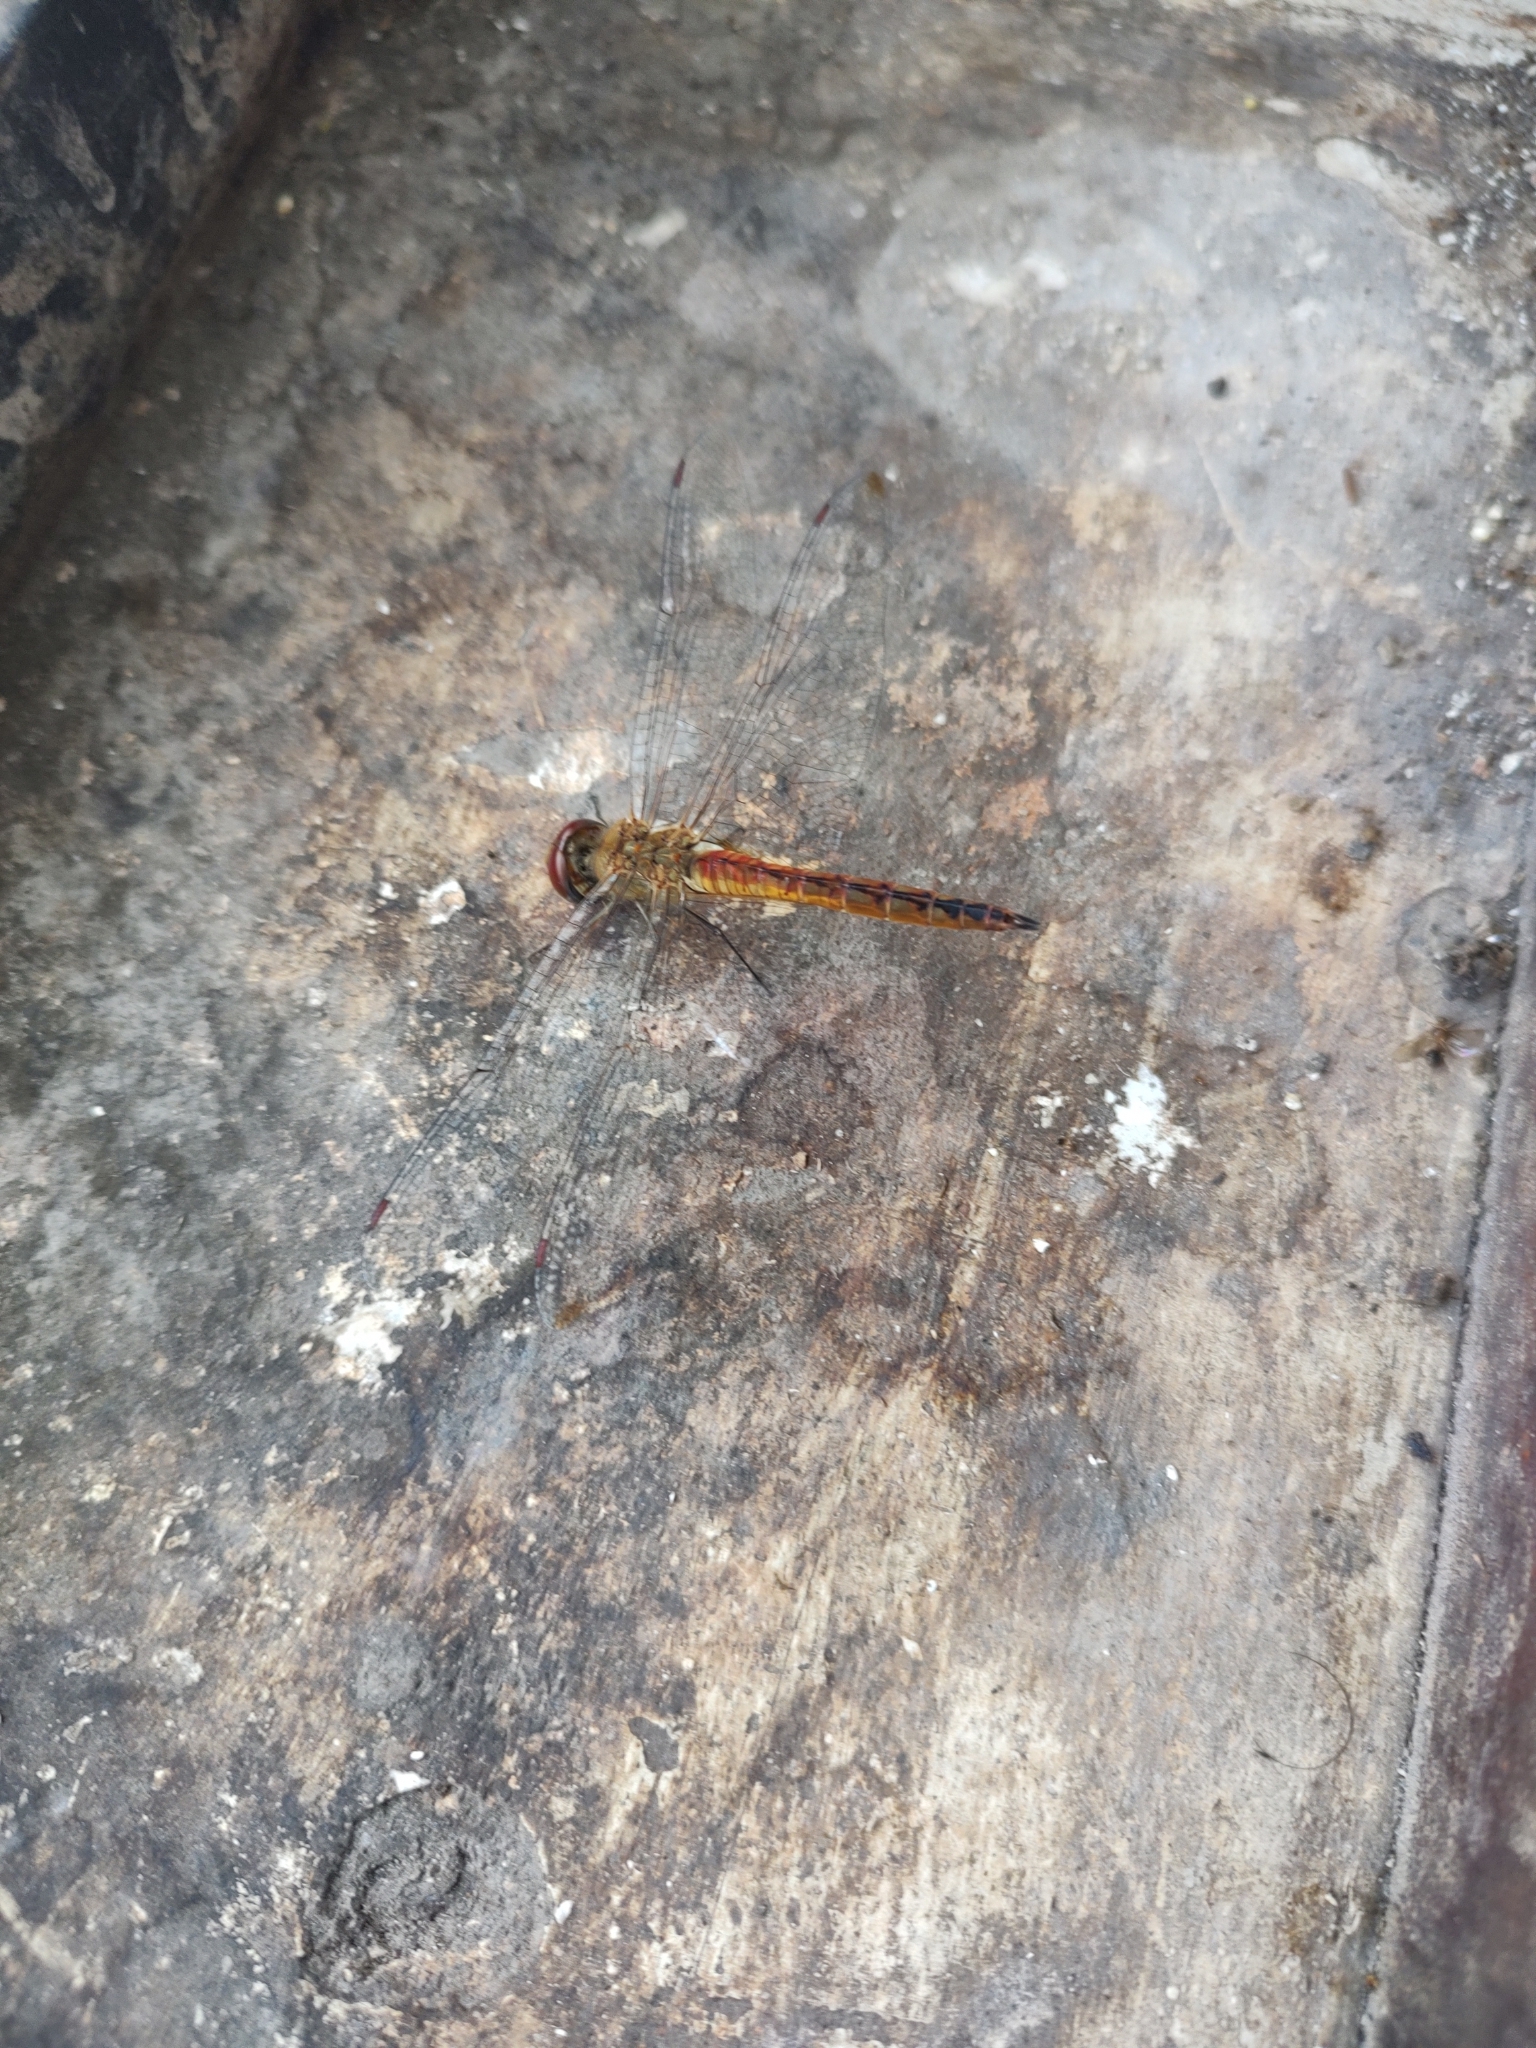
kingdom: Animalia
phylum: Arthropoda
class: Insecta
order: Odonata
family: Libellulidae
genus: Pantala
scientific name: Pantala flavescens
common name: Wandering glider
